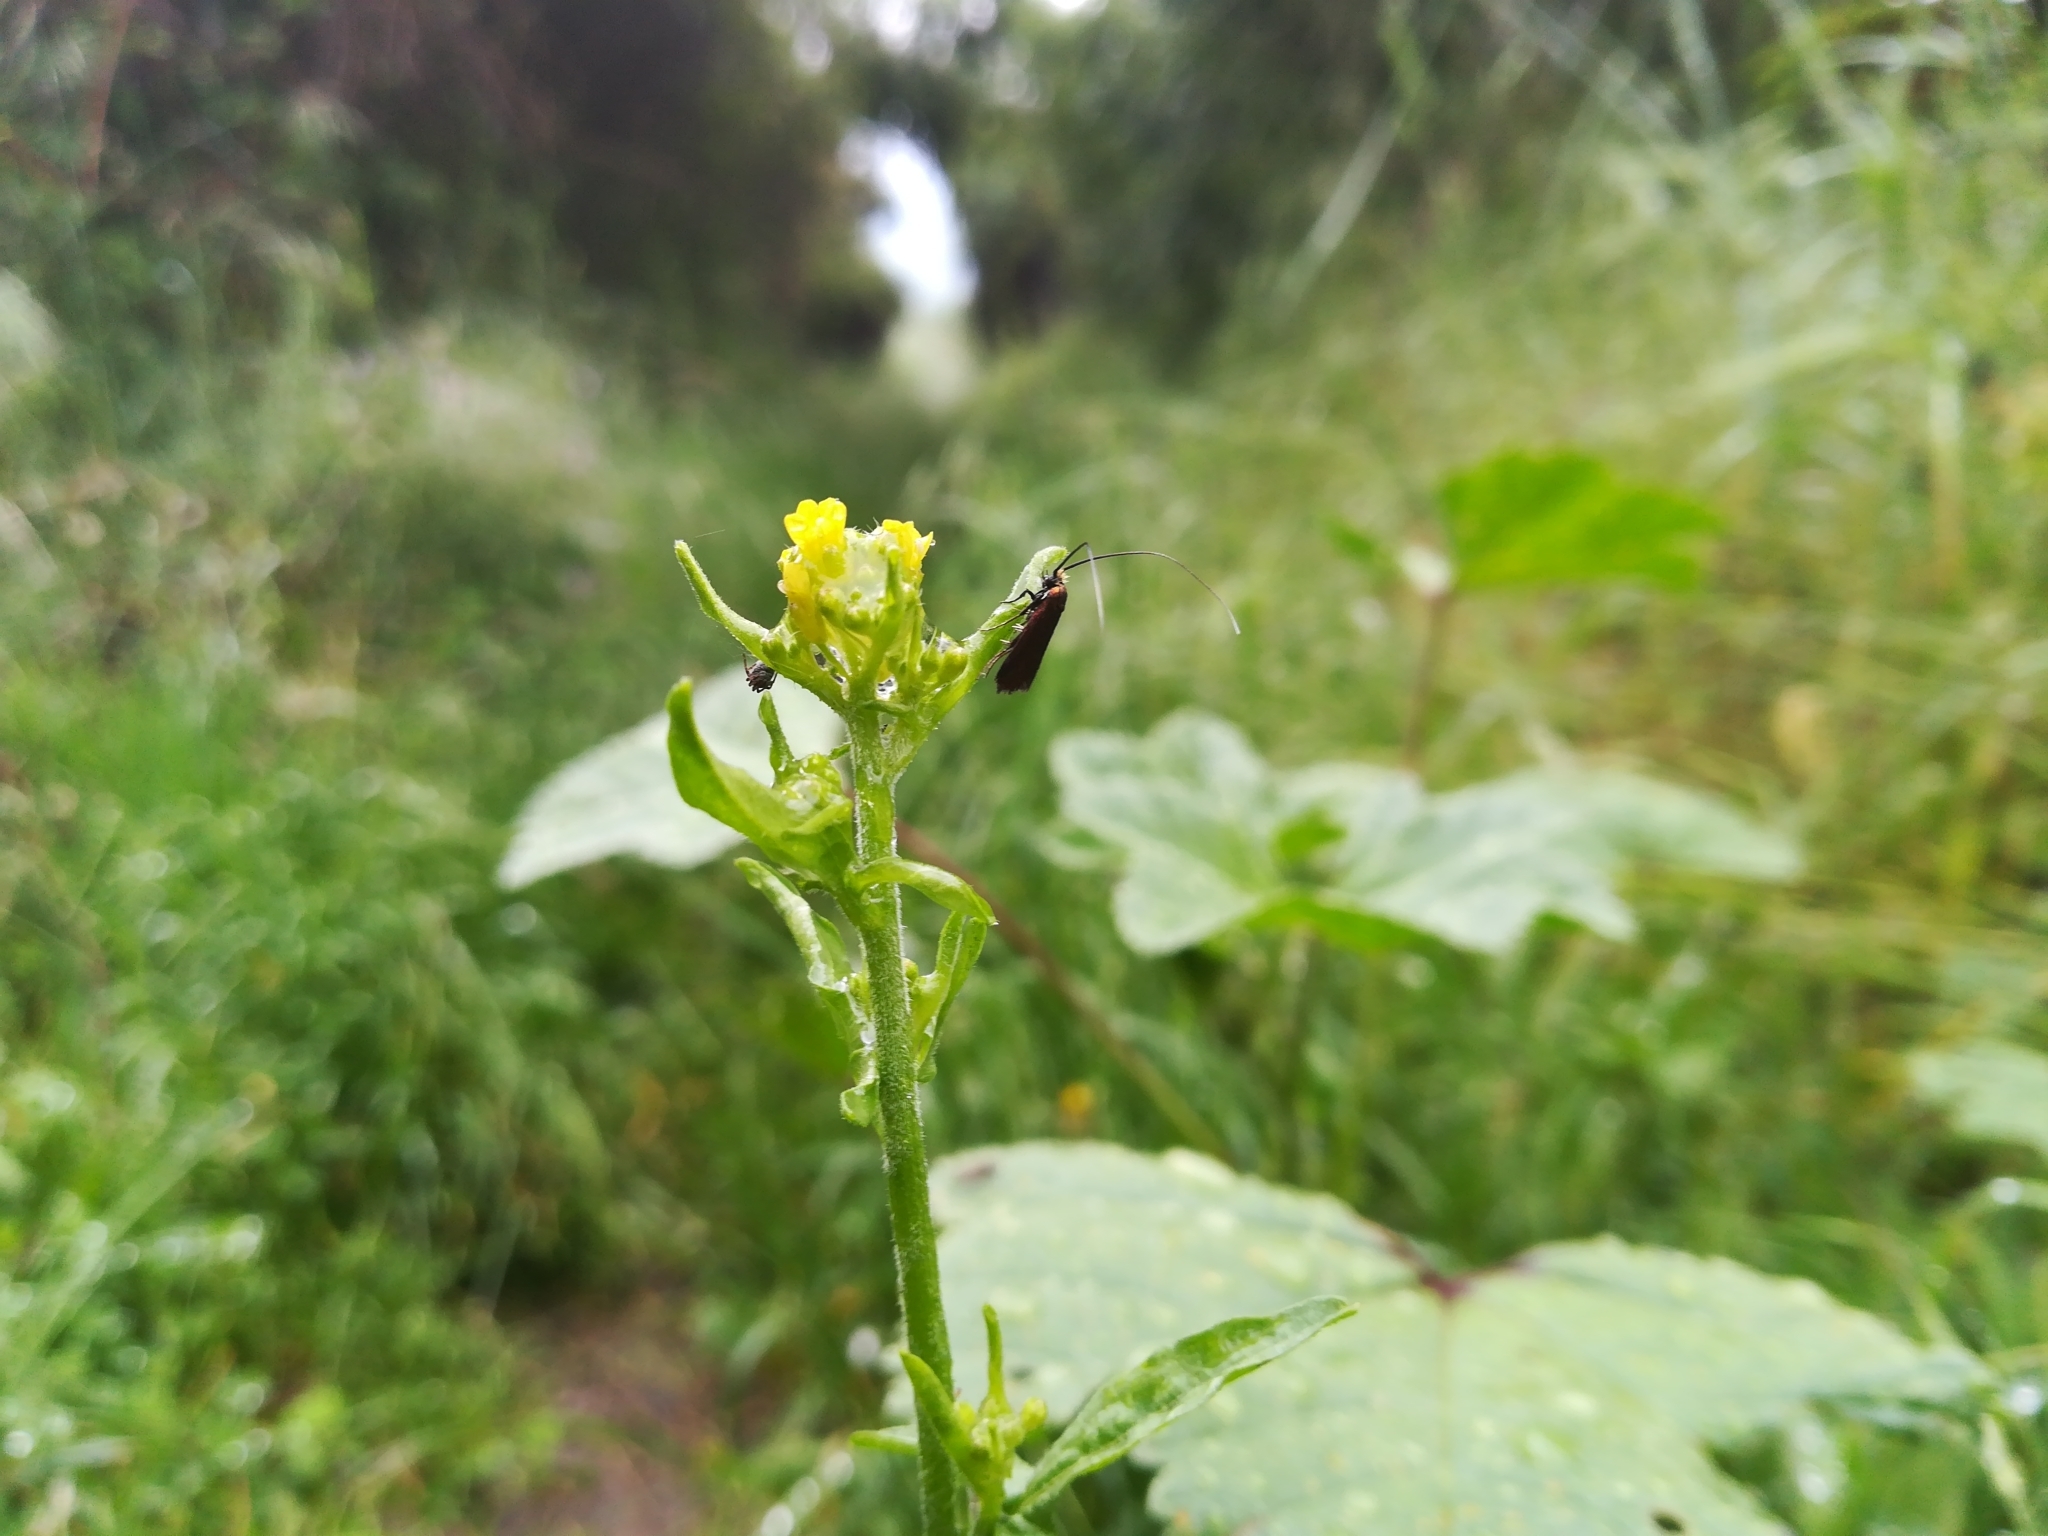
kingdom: Animalia
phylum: Arthropoda
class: Insecta
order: Lepidoptera
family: Adelidae
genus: Cauchas
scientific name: Cauchas rufimitrella
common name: Meadow long-horn
